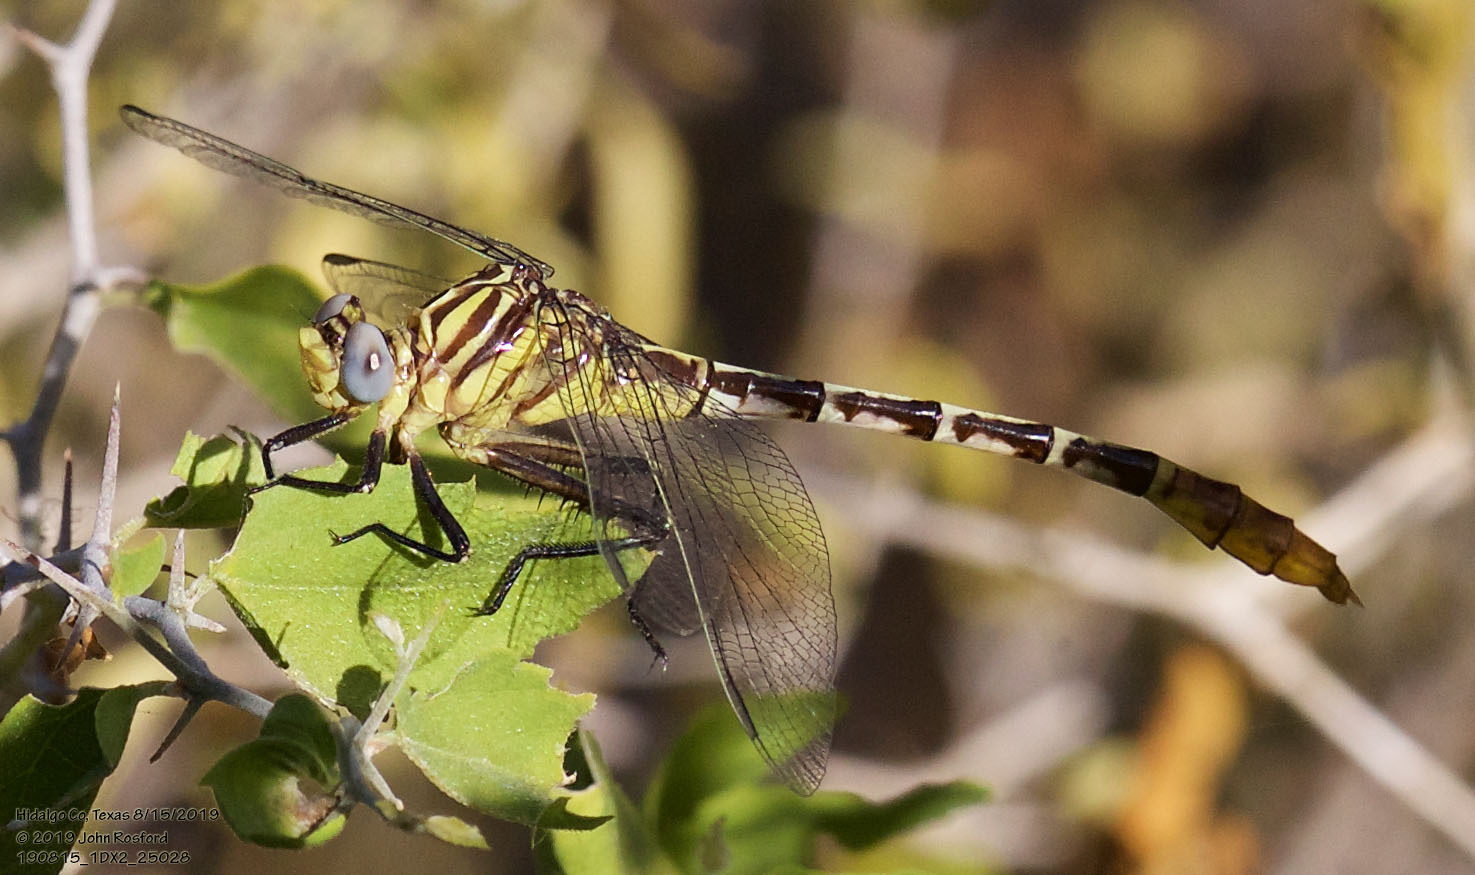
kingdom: Animalia
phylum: Arthropoda
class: Insecta
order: Odonata
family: Gomphidae
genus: Dromogomphus
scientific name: Dromogomphus spoliatus
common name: Flag-tailed spinyleg
